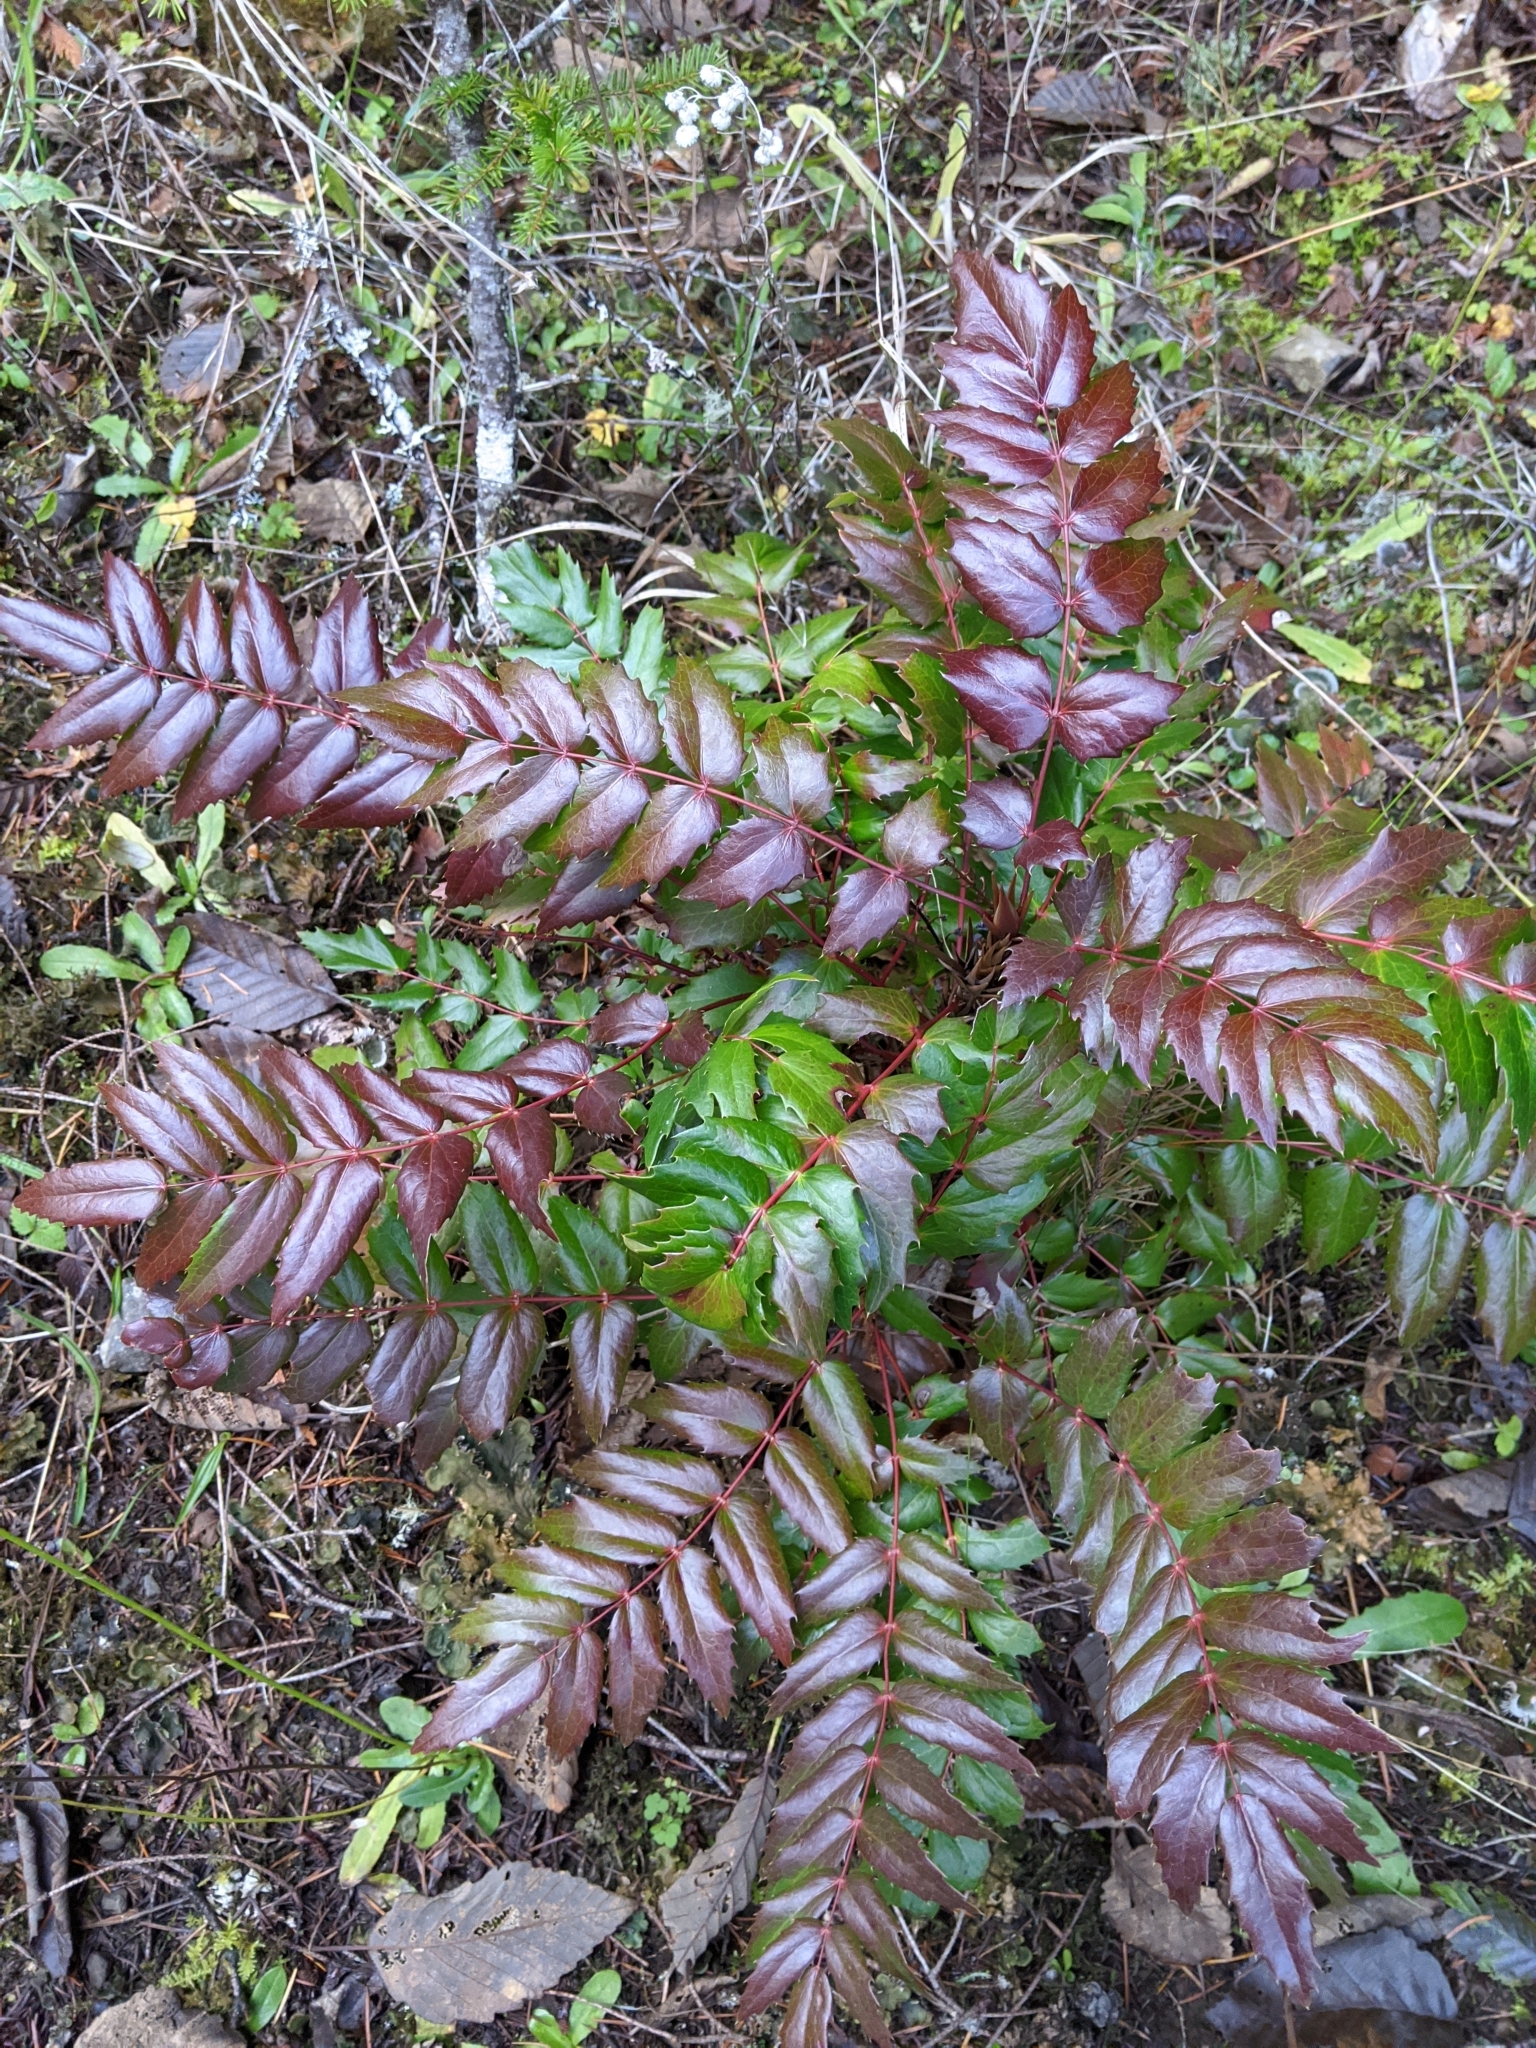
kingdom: Plantae
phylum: Tracheophyta
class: Magnoliopsida
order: Ranunculales
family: Berberidaceae
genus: Mahonia
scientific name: Mahonia nervosa
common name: Cascade oregon-grape
